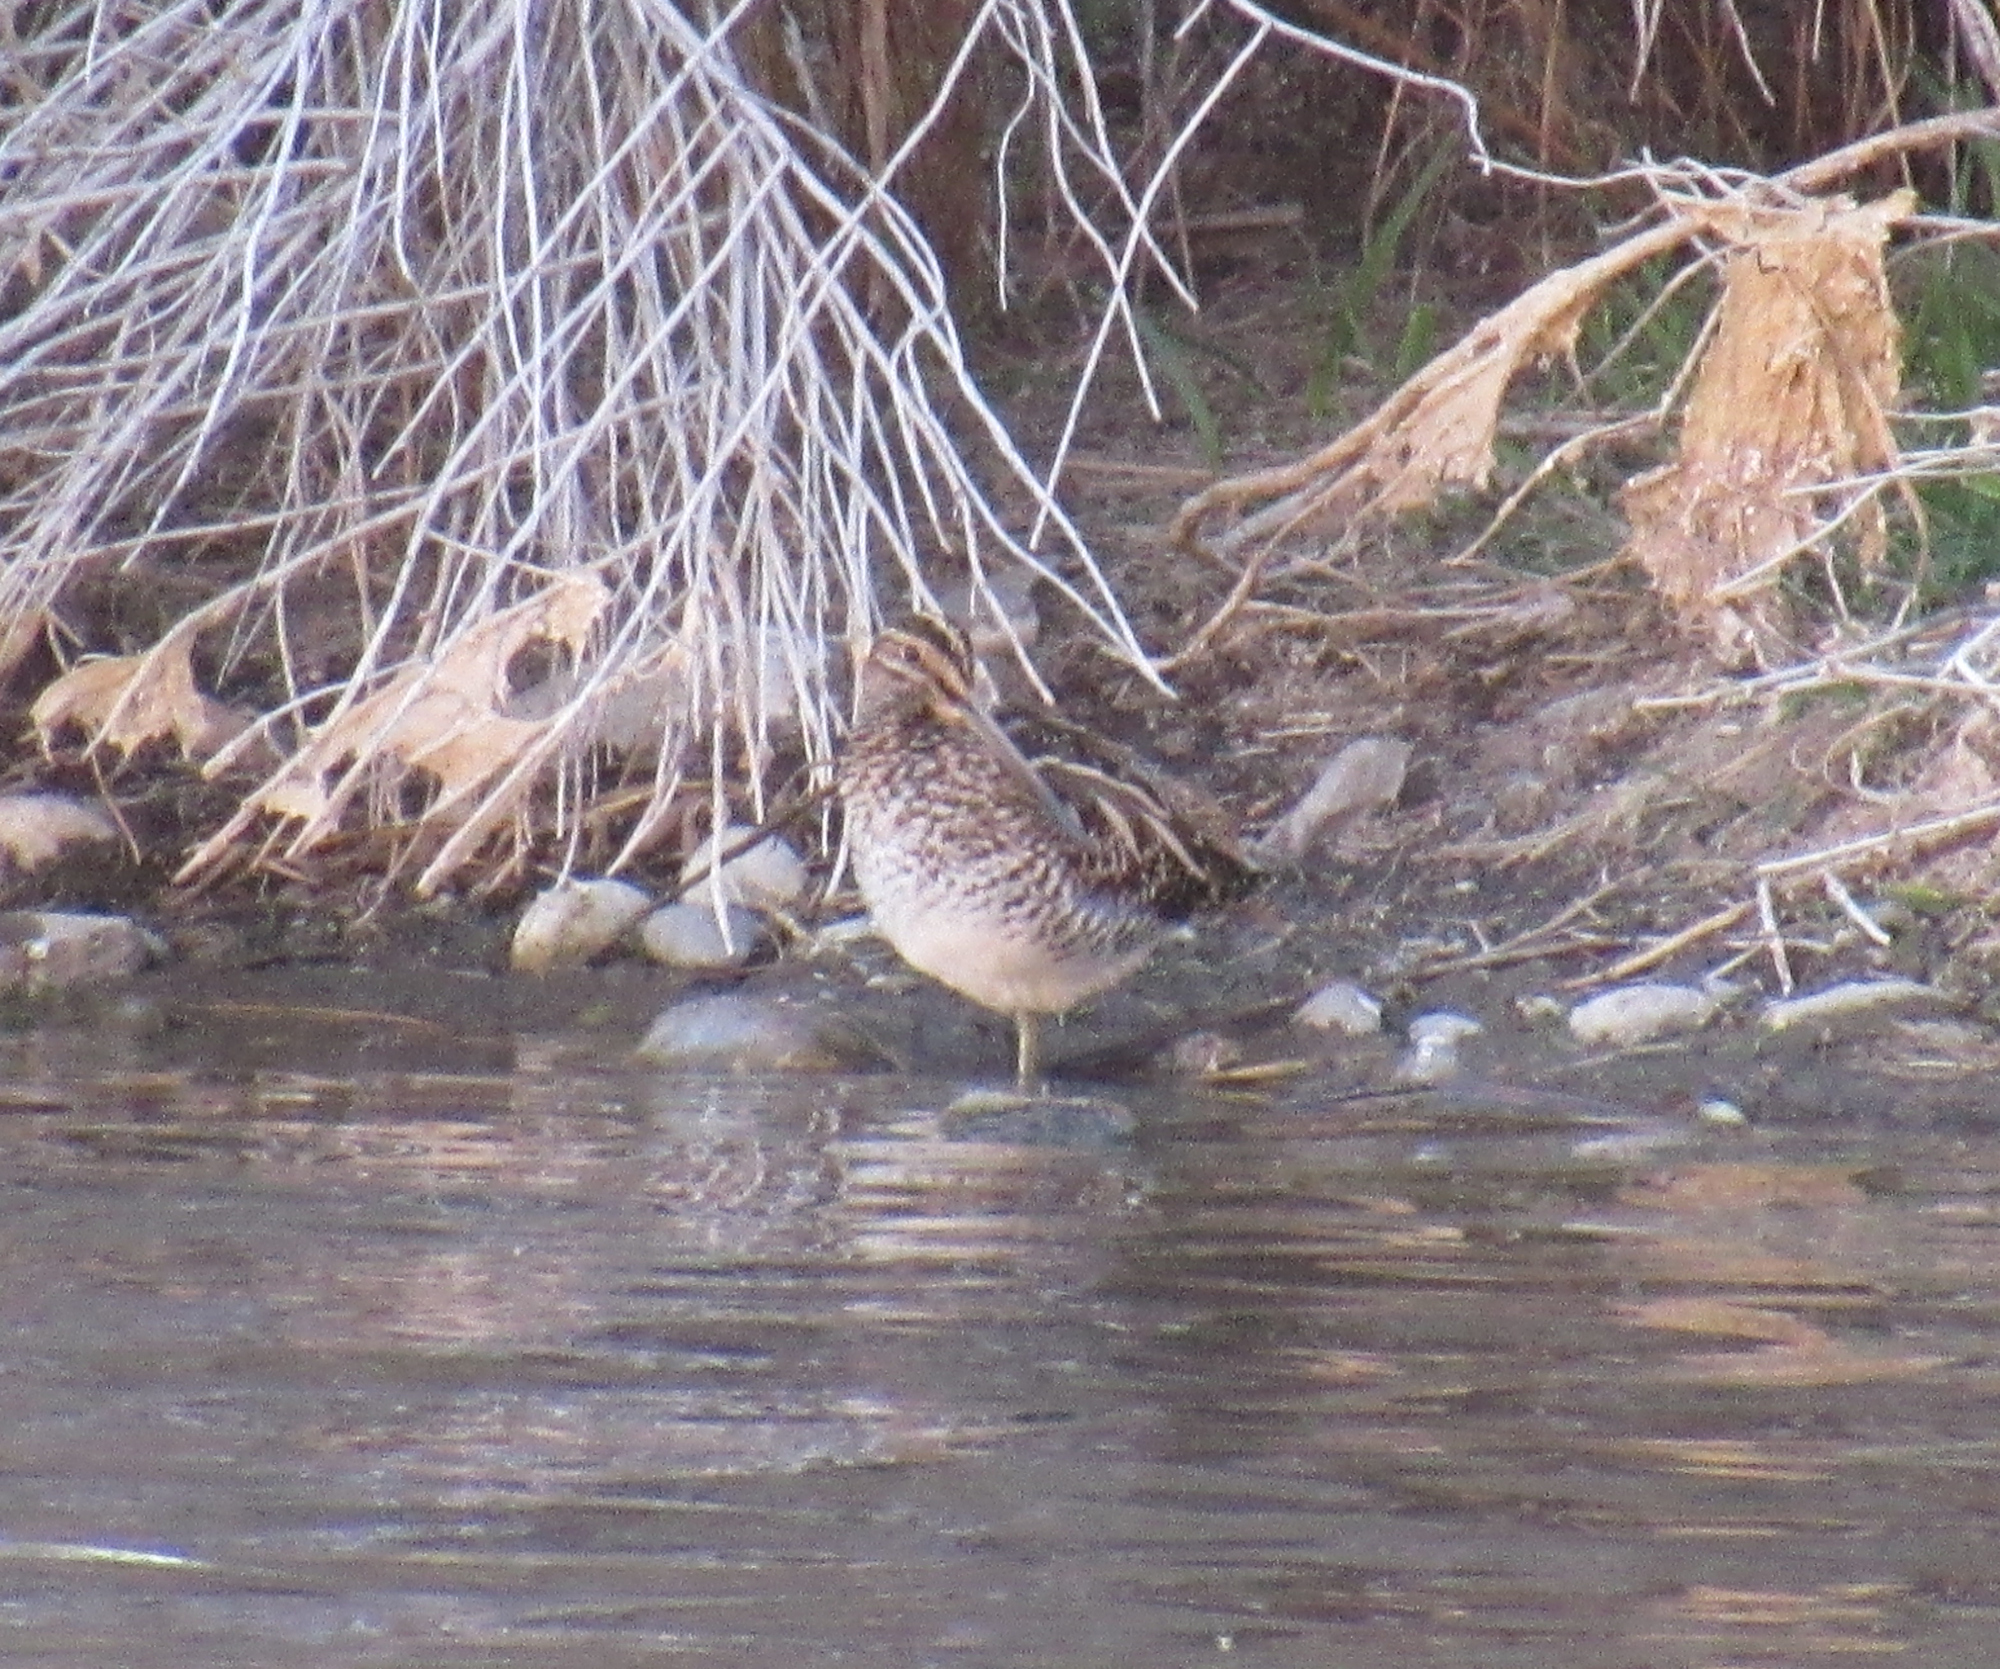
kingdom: Animalia
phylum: Chordata
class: Aves
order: Charadriiformes
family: Scolopacidae
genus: Gallinago
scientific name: Gallinago delicata
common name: Wilson's snipe
